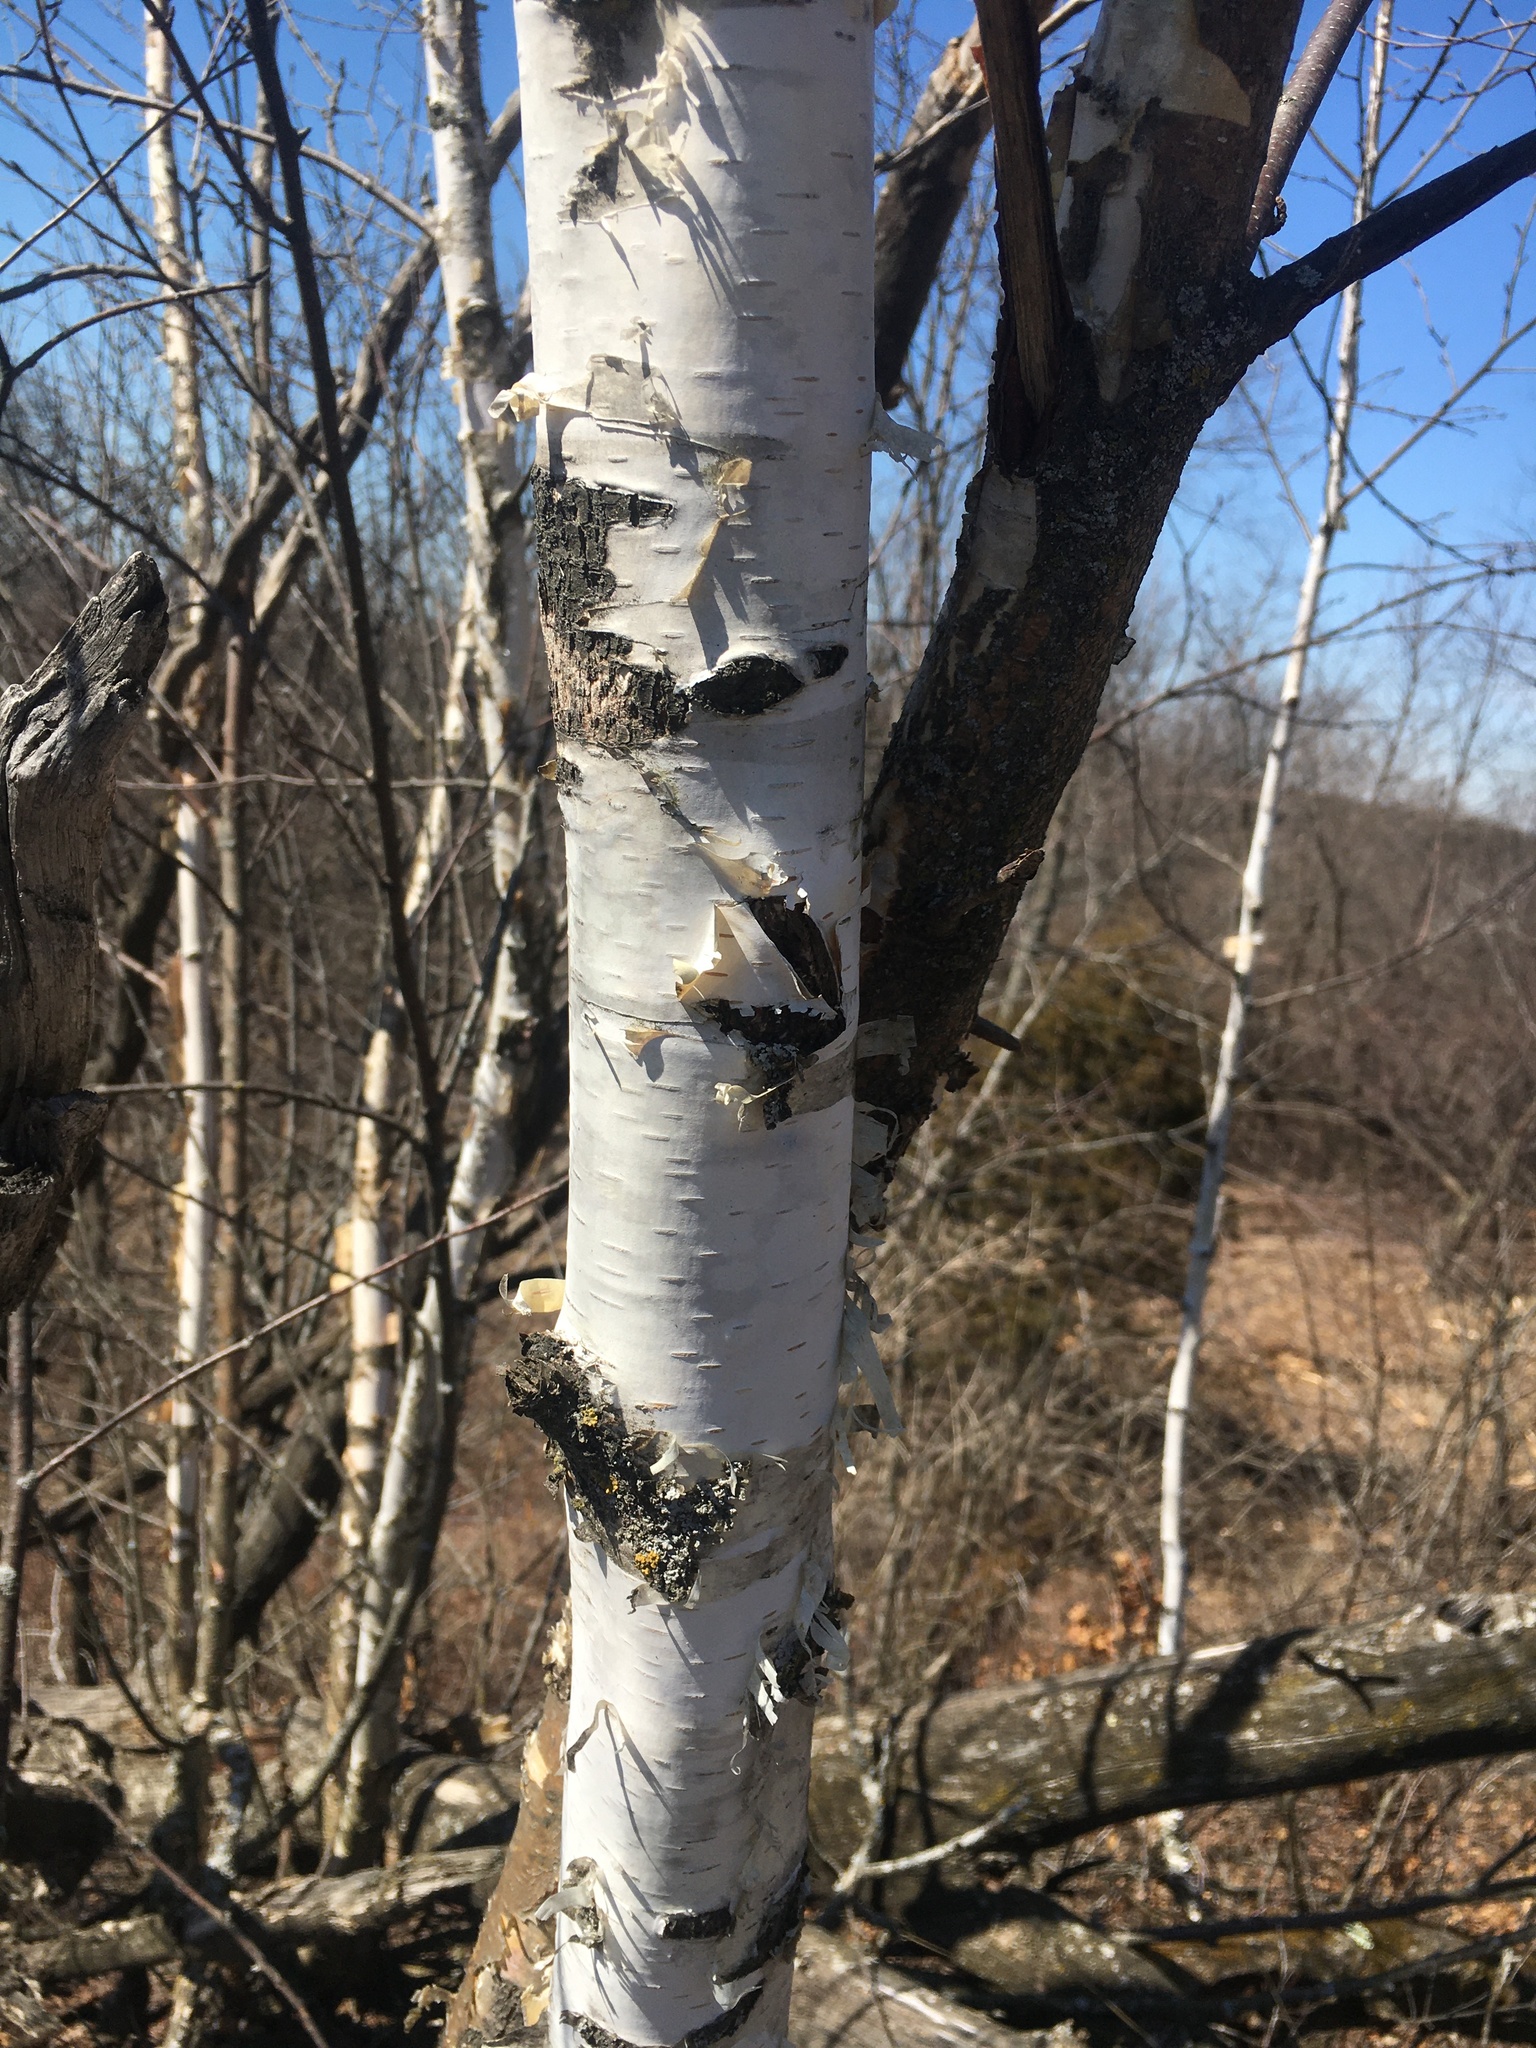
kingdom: Plantae
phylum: Tracheophyta
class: Magnoliopsida
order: Fagales
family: Betulaceae
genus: Betula
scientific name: Betula papyrifera
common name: Paper birch
